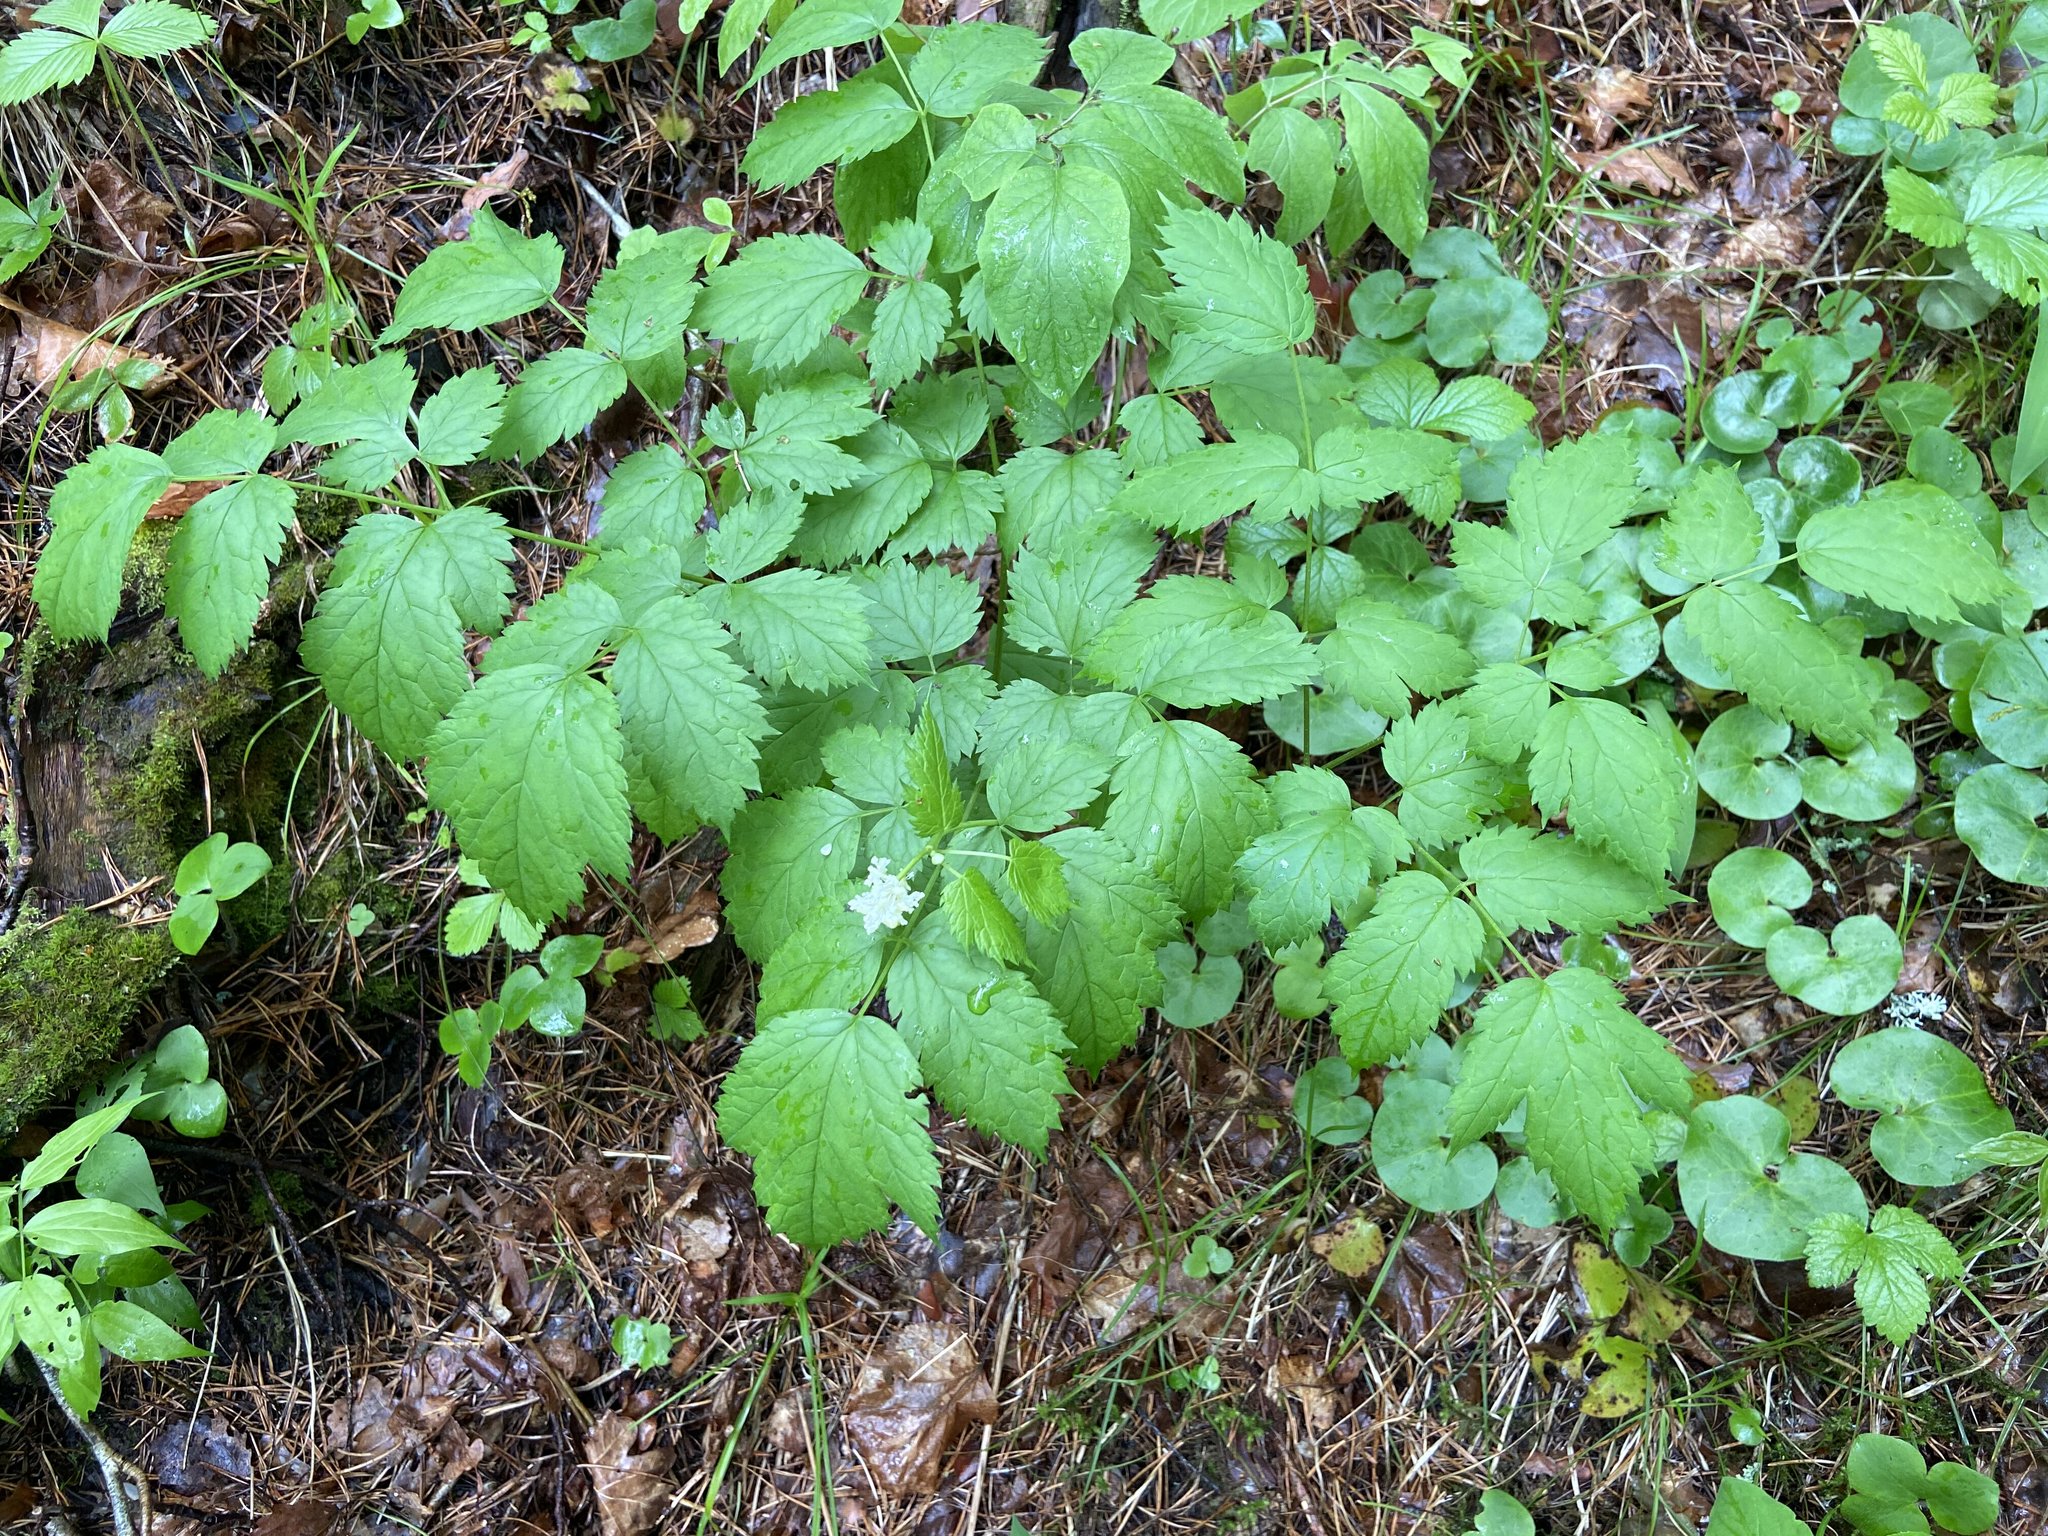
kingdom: Plantae
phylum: Tracheophyta
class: Magnoliopsida
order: Ranunculales
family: Ranunculaceae
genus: Actaea
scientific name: Actaea spicata
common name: Baneberry
